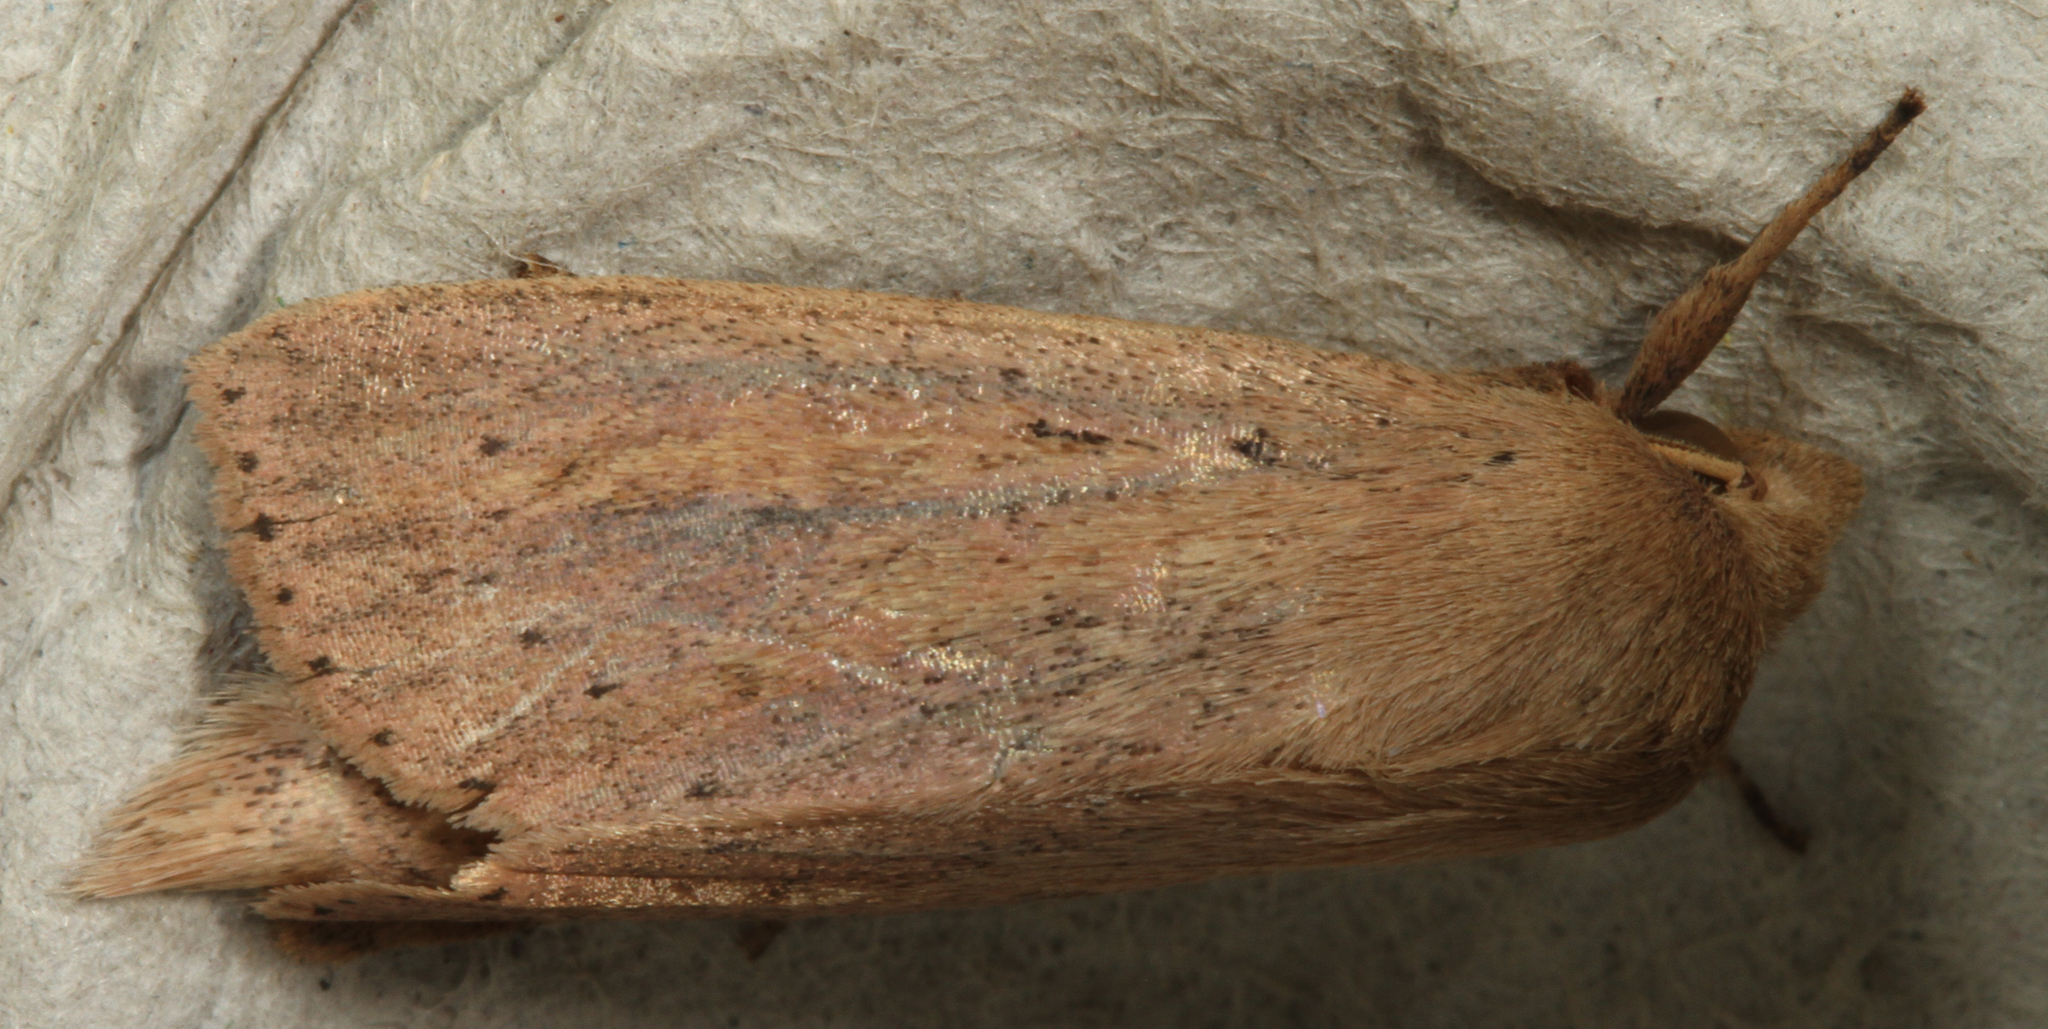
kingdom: Animalia
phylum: Arthropoda
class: Insecta
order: Lepidoptera
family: Noctuidae
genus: Globia
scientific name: Globia oblonga
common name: Oblong sedge borer moth
